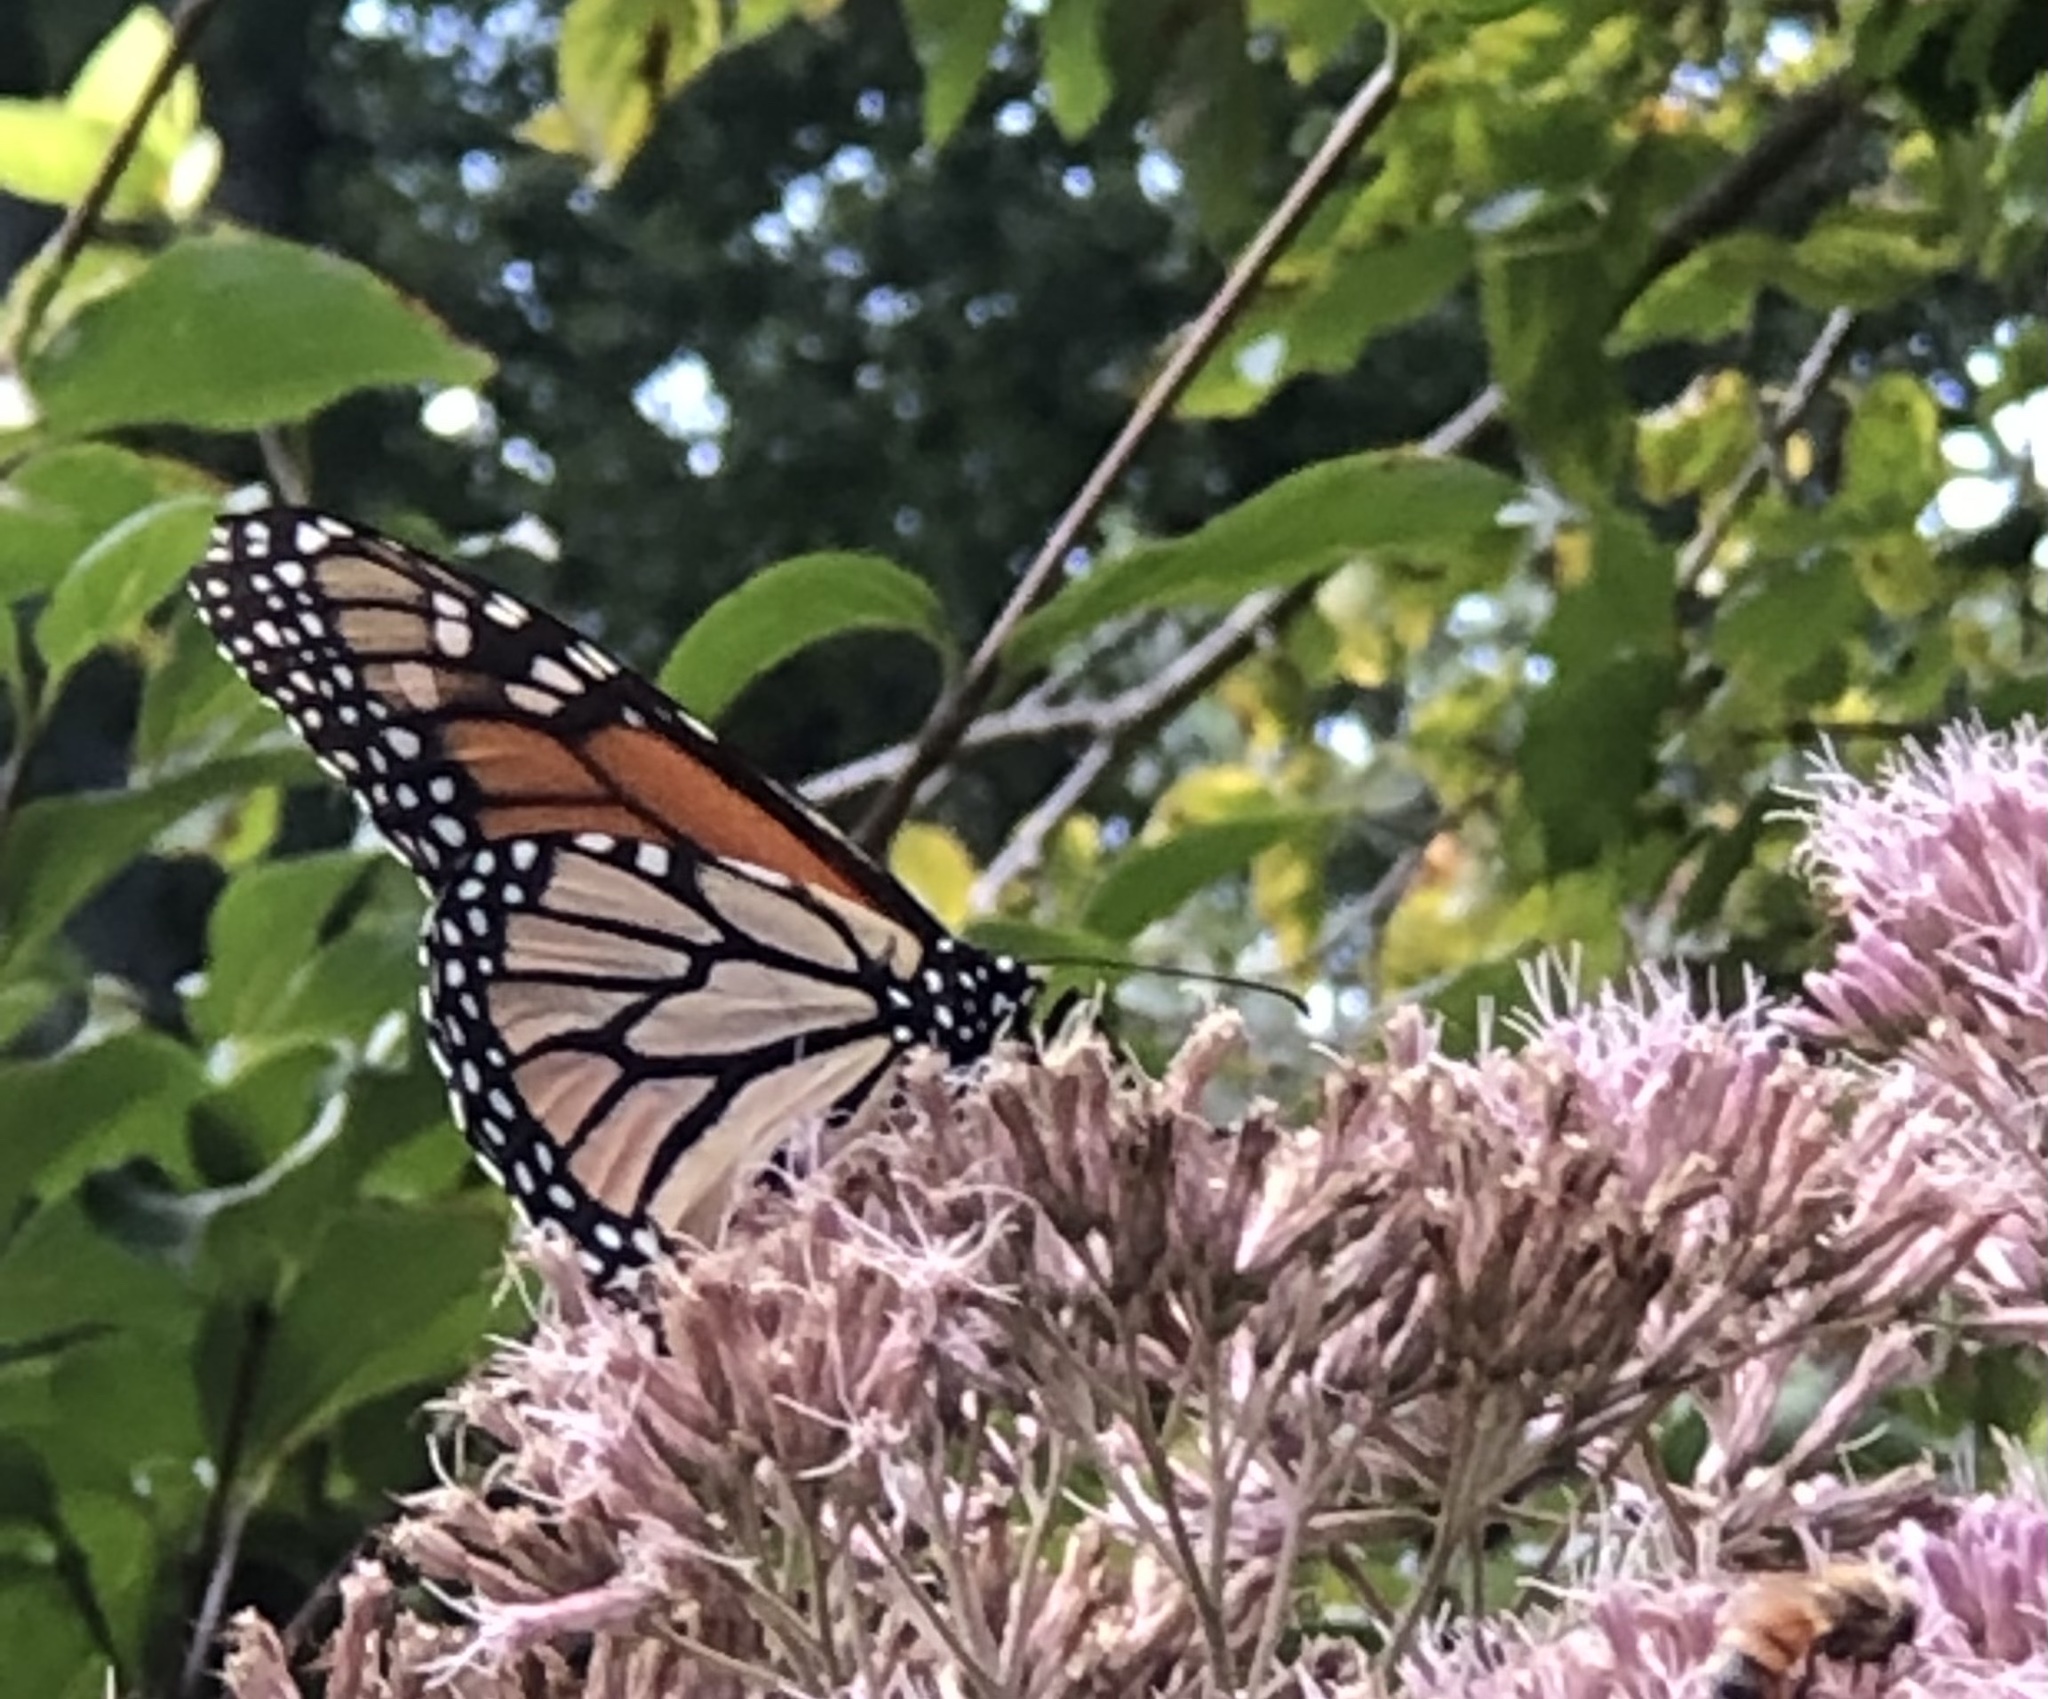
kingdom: Animalia
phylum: Arthropoda
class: Insecta
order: Lepidoptera
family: Nymphalidae
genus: Danaus
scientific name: Danaus plexippus
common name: Monarch
